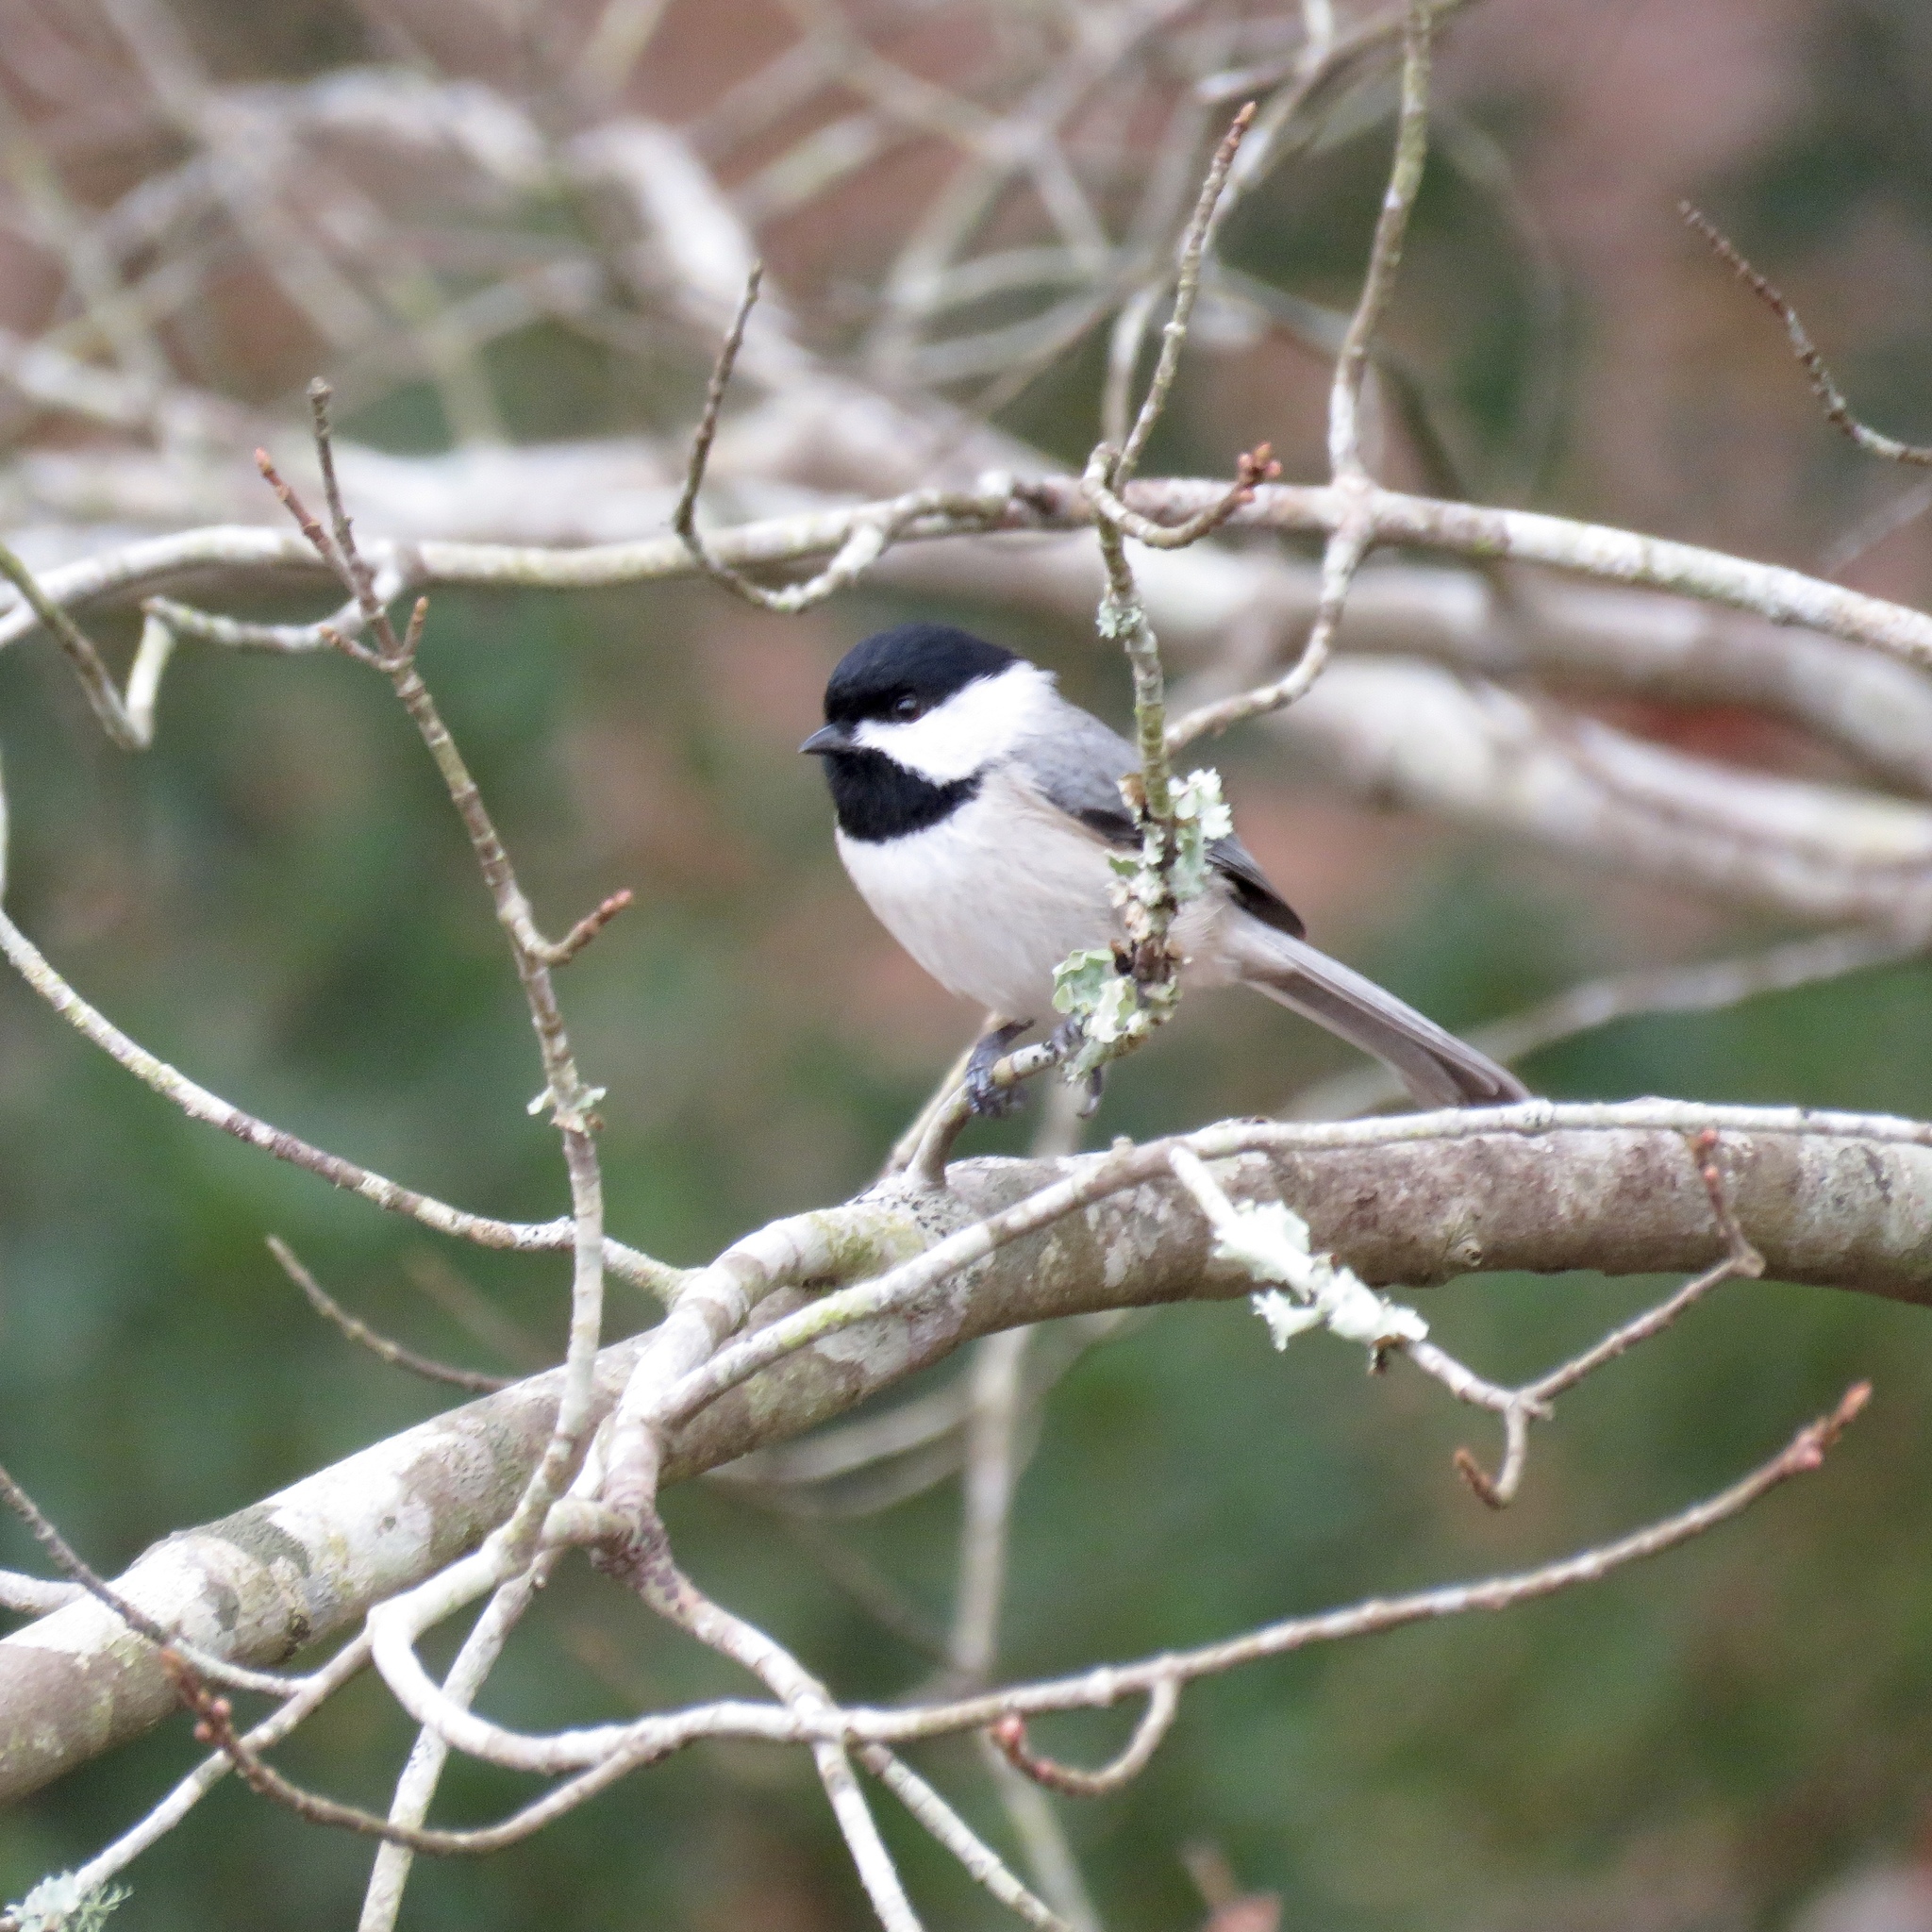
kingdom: Animalia
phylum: Chordata
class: Aves
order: Passeriformes
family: Paridae
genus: Poecile
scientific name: Poecile carolinensis
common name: Carolina chickadee
